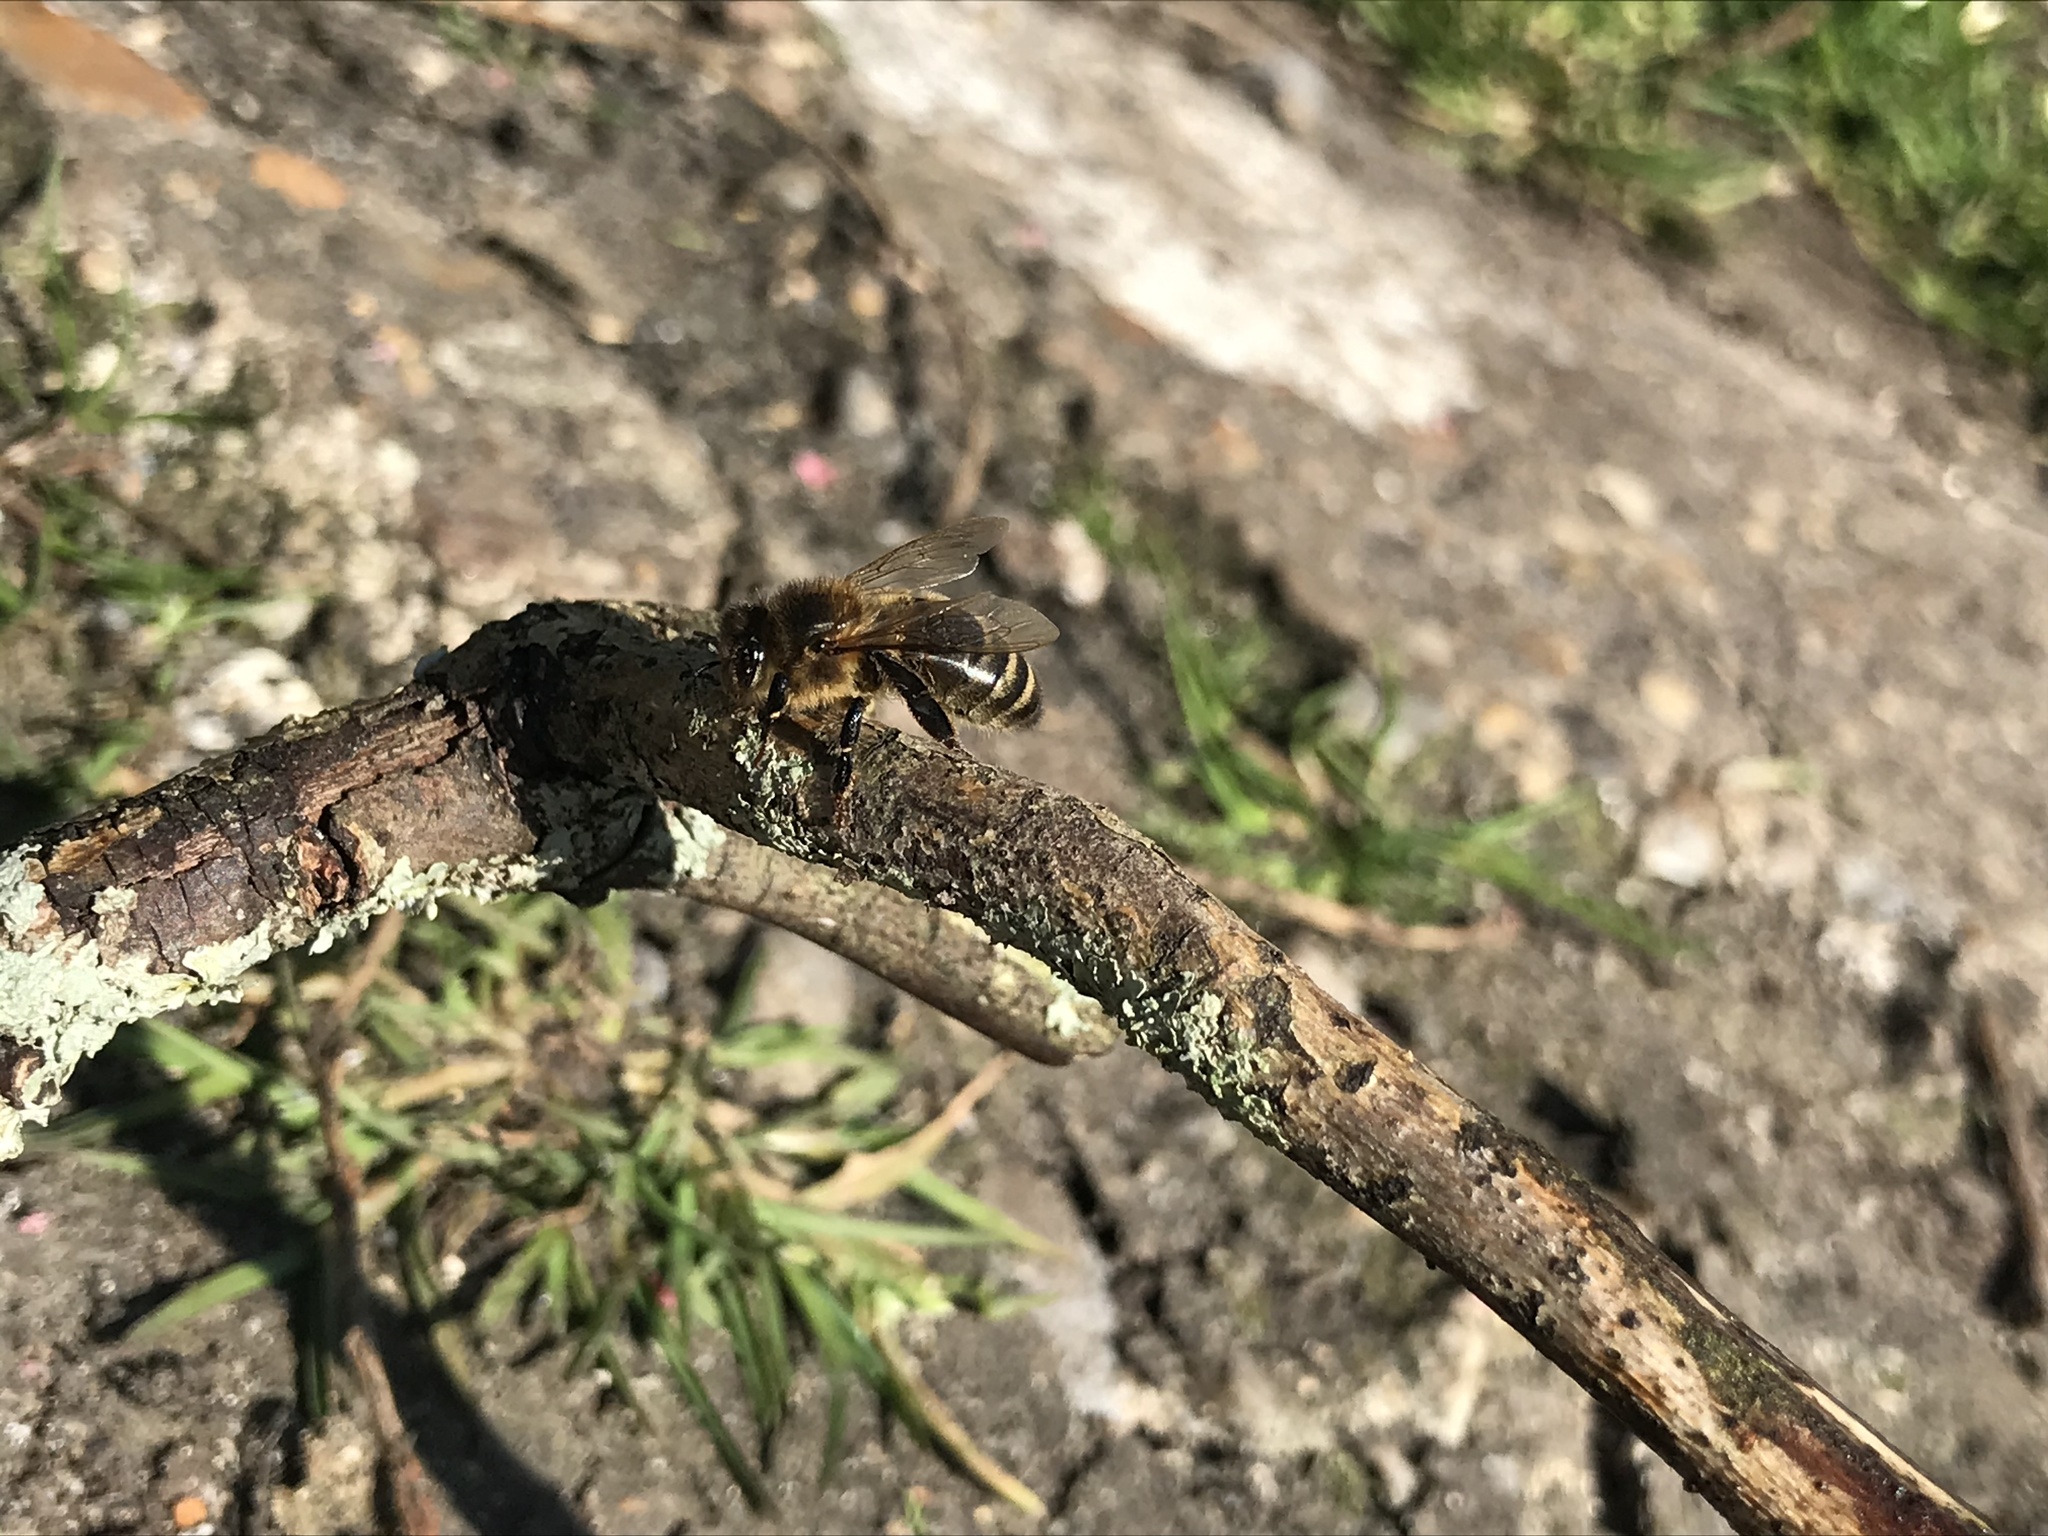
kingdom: Animalia
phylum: Arthropoda
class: Insecta
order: Hymenoptera
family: Apidae
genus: Apis
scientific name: Apis mellifera
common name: Honey bee
